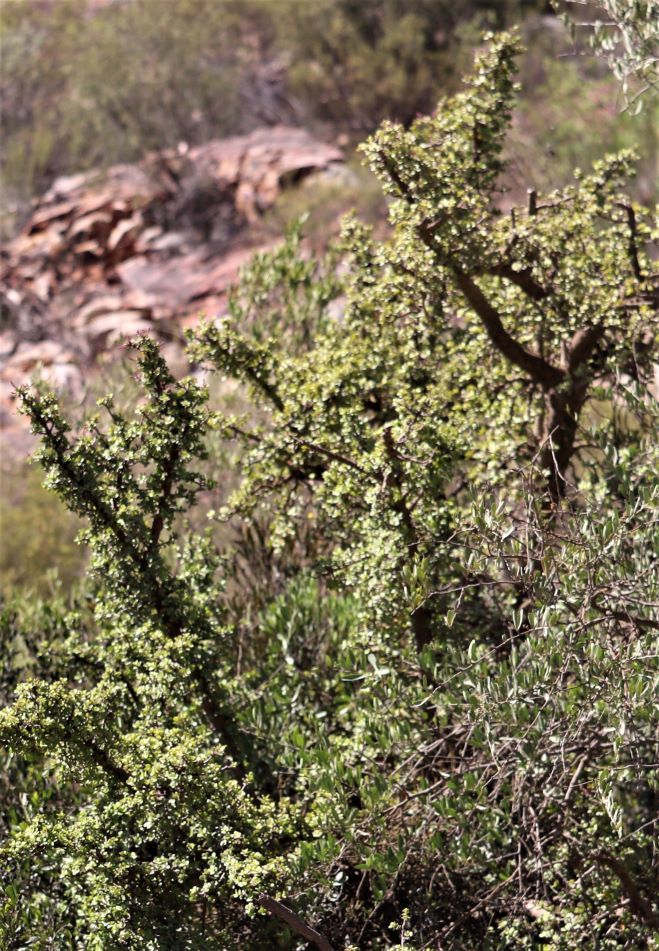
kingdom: Plantae
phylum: Tracheophyta
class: Magnoliopsida
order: Caryophyllales
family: Didiereaceae
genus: Portulacaria
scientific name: Portulacaria afra
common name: Elephant-bush
